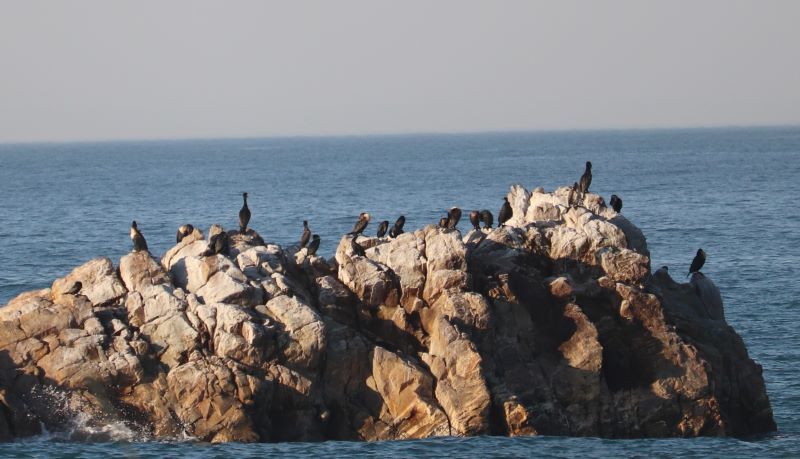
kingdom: Animalia
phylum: Chordata
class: Aves
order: Suliformes
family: Phalacrocoracidae
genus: Phalacrocorax
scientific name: Phalacrocorax carbo
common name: Great cormorant
